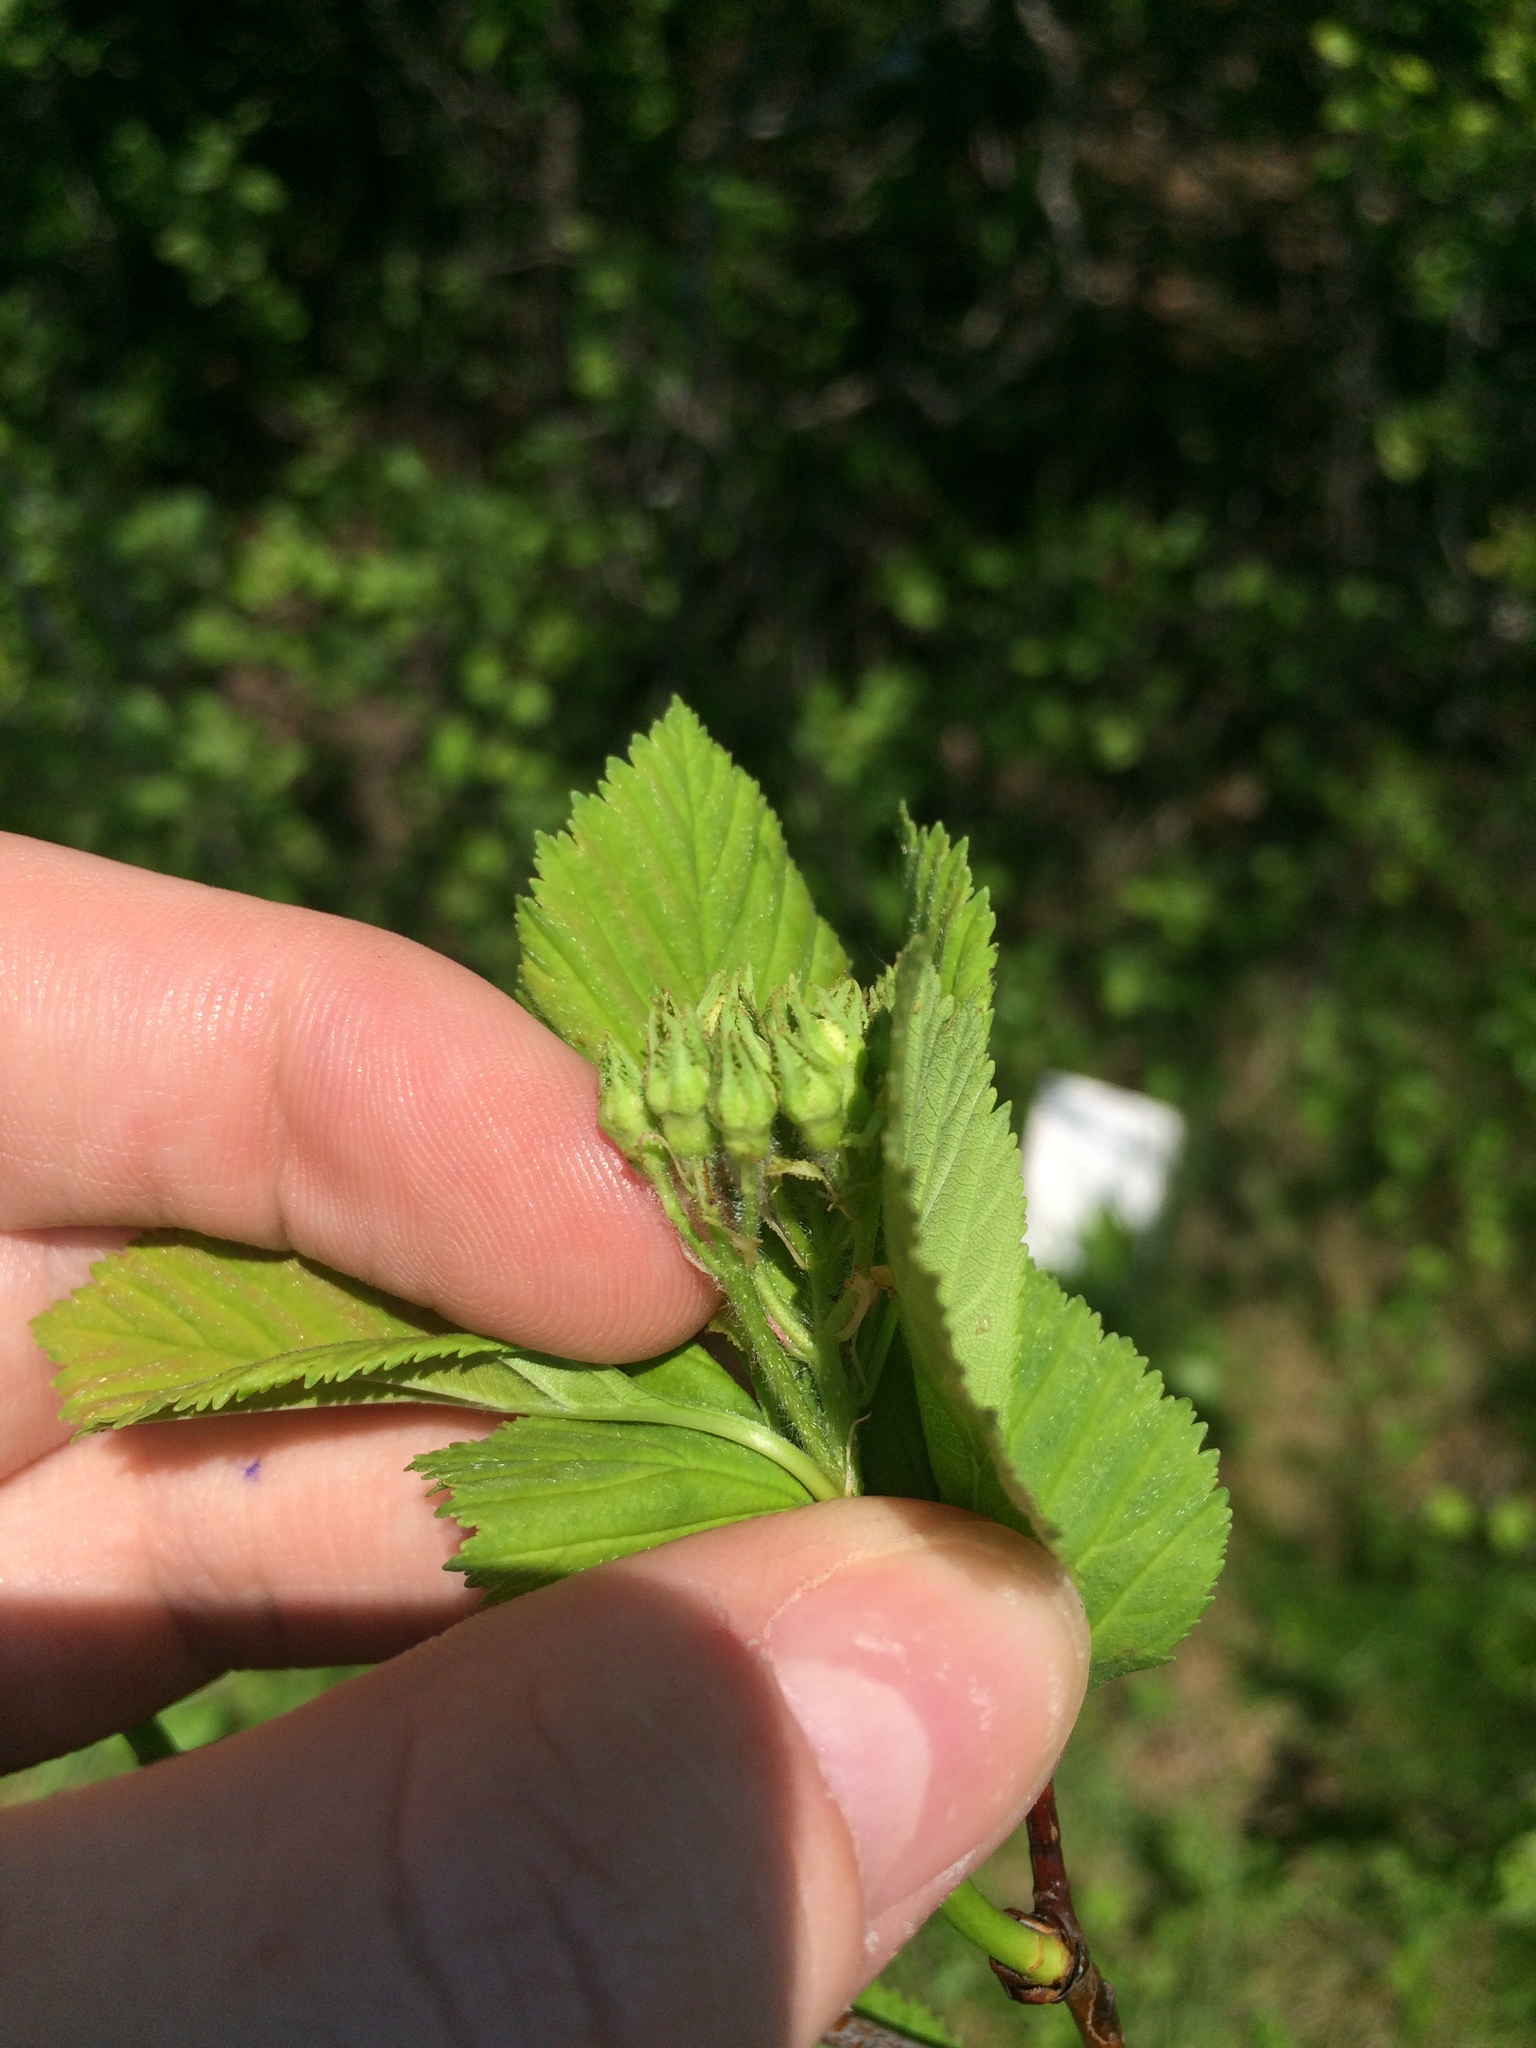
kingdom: Plantae
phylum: Tracheophyta
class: Magnoliopsida
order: Rosales
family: Rosaceae
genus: Crataegus
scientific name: Crataegus macracantha
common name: Large-thorn hawthorn
